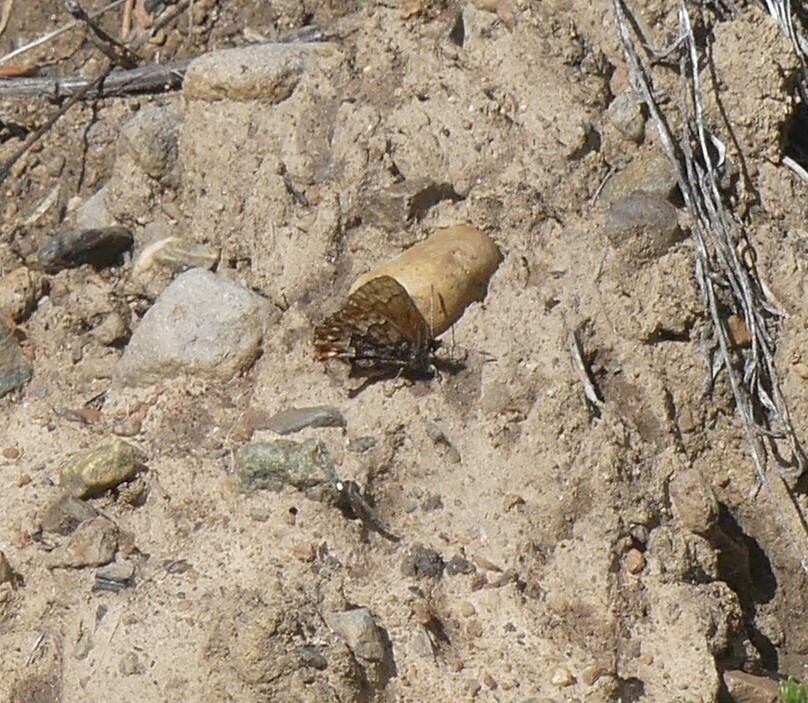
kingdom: Animalia
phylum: Arthropoda
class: Insecta
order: Lepidoptera
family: Lycaenidae
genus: Incisalia
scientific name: Incisalia eryphon
